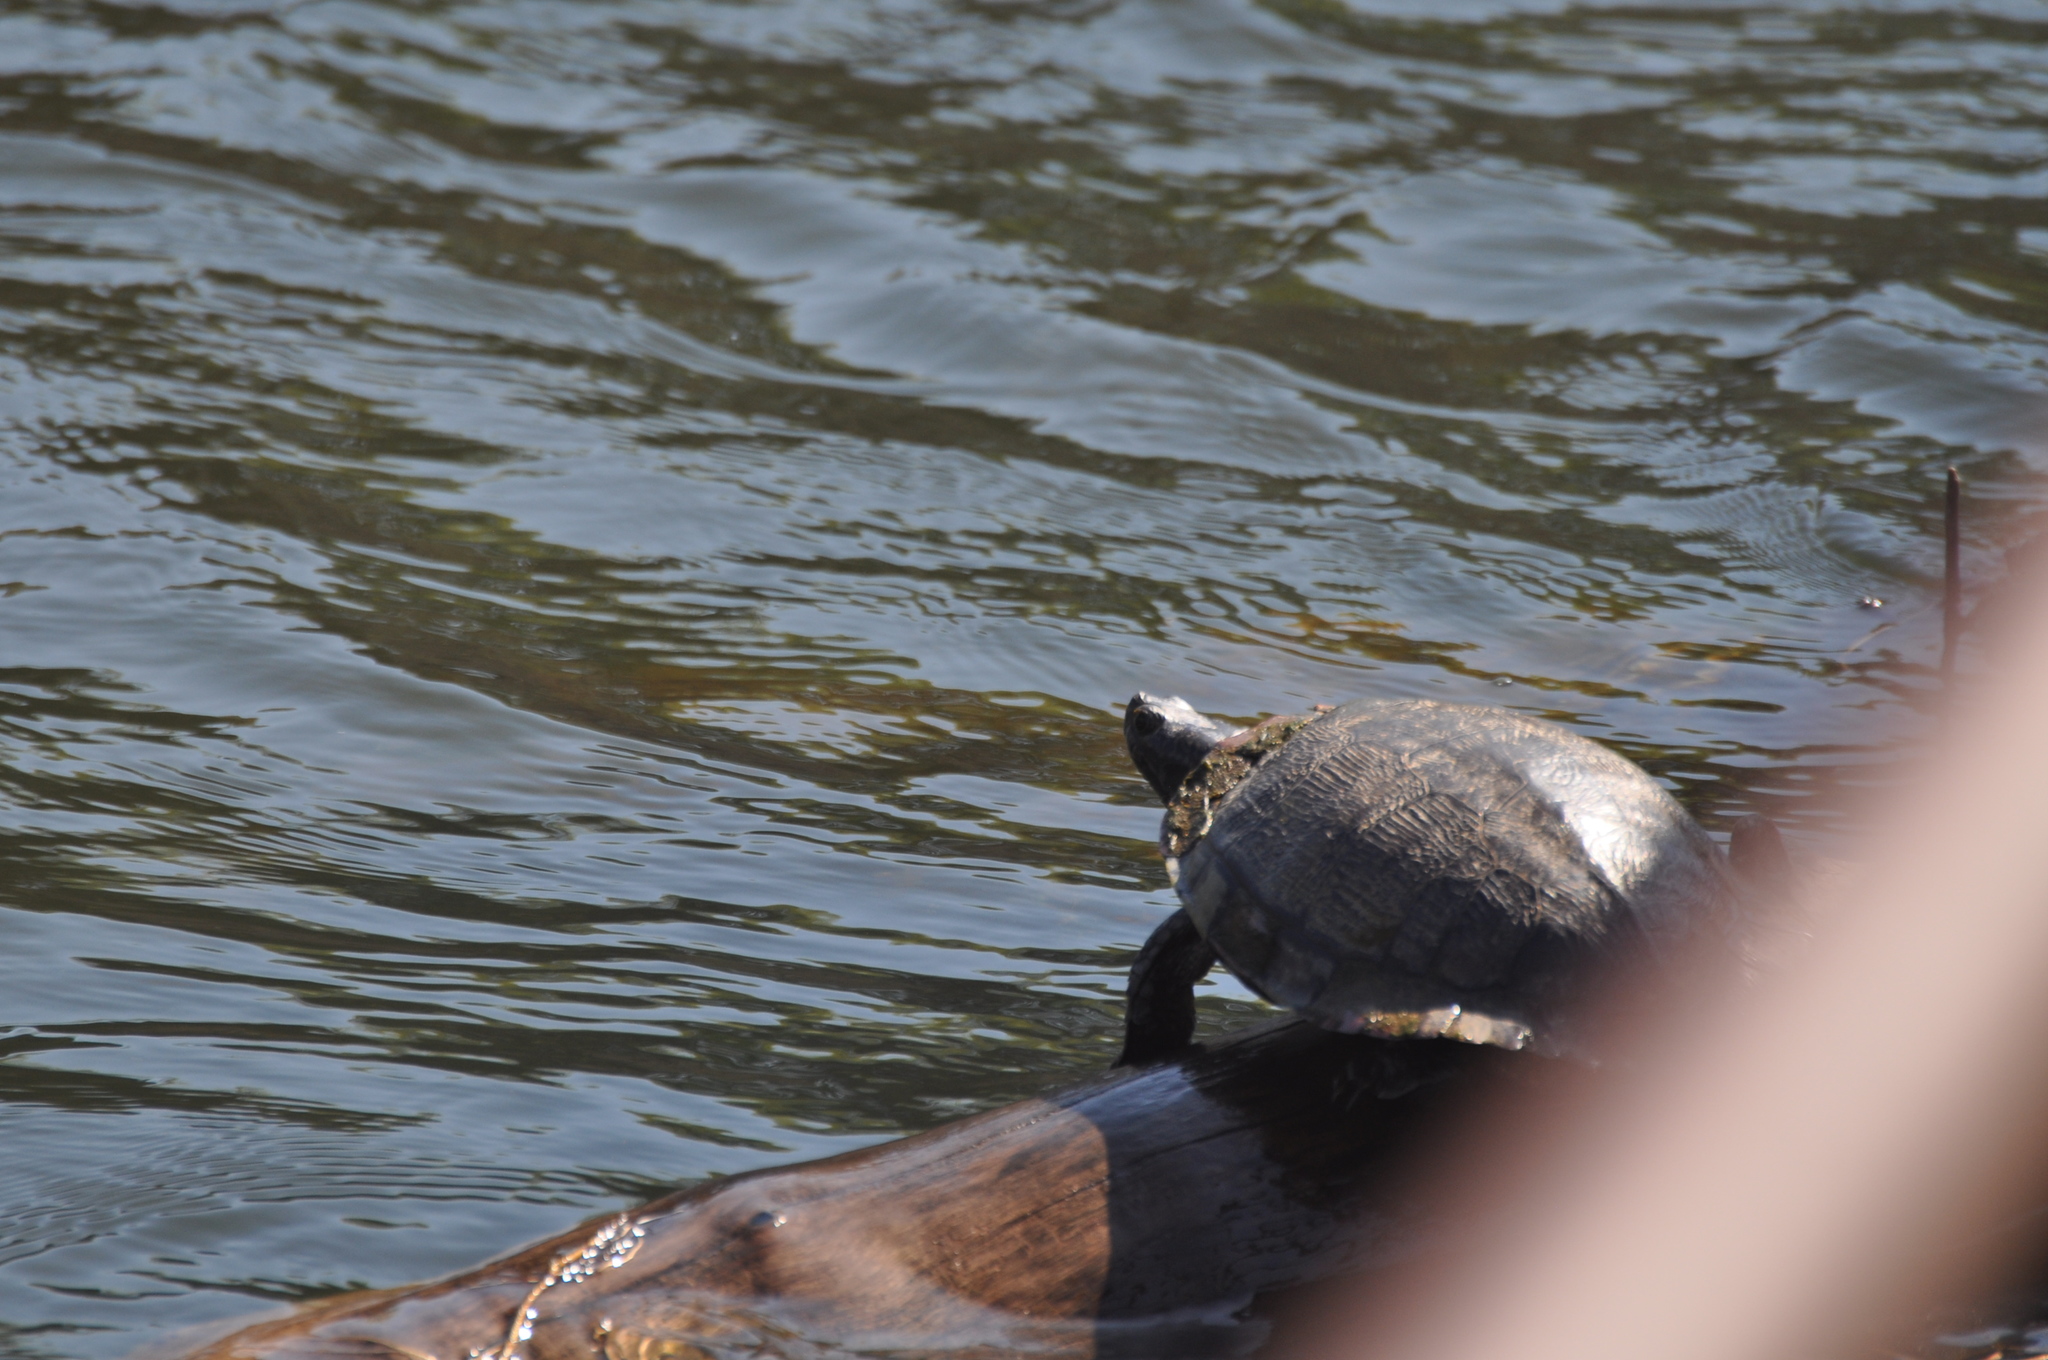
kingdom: Animalia
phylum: Chordata
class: Testudines
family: Emydidae
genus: Trachemys
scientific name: Trachemys scripta
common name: Slider
